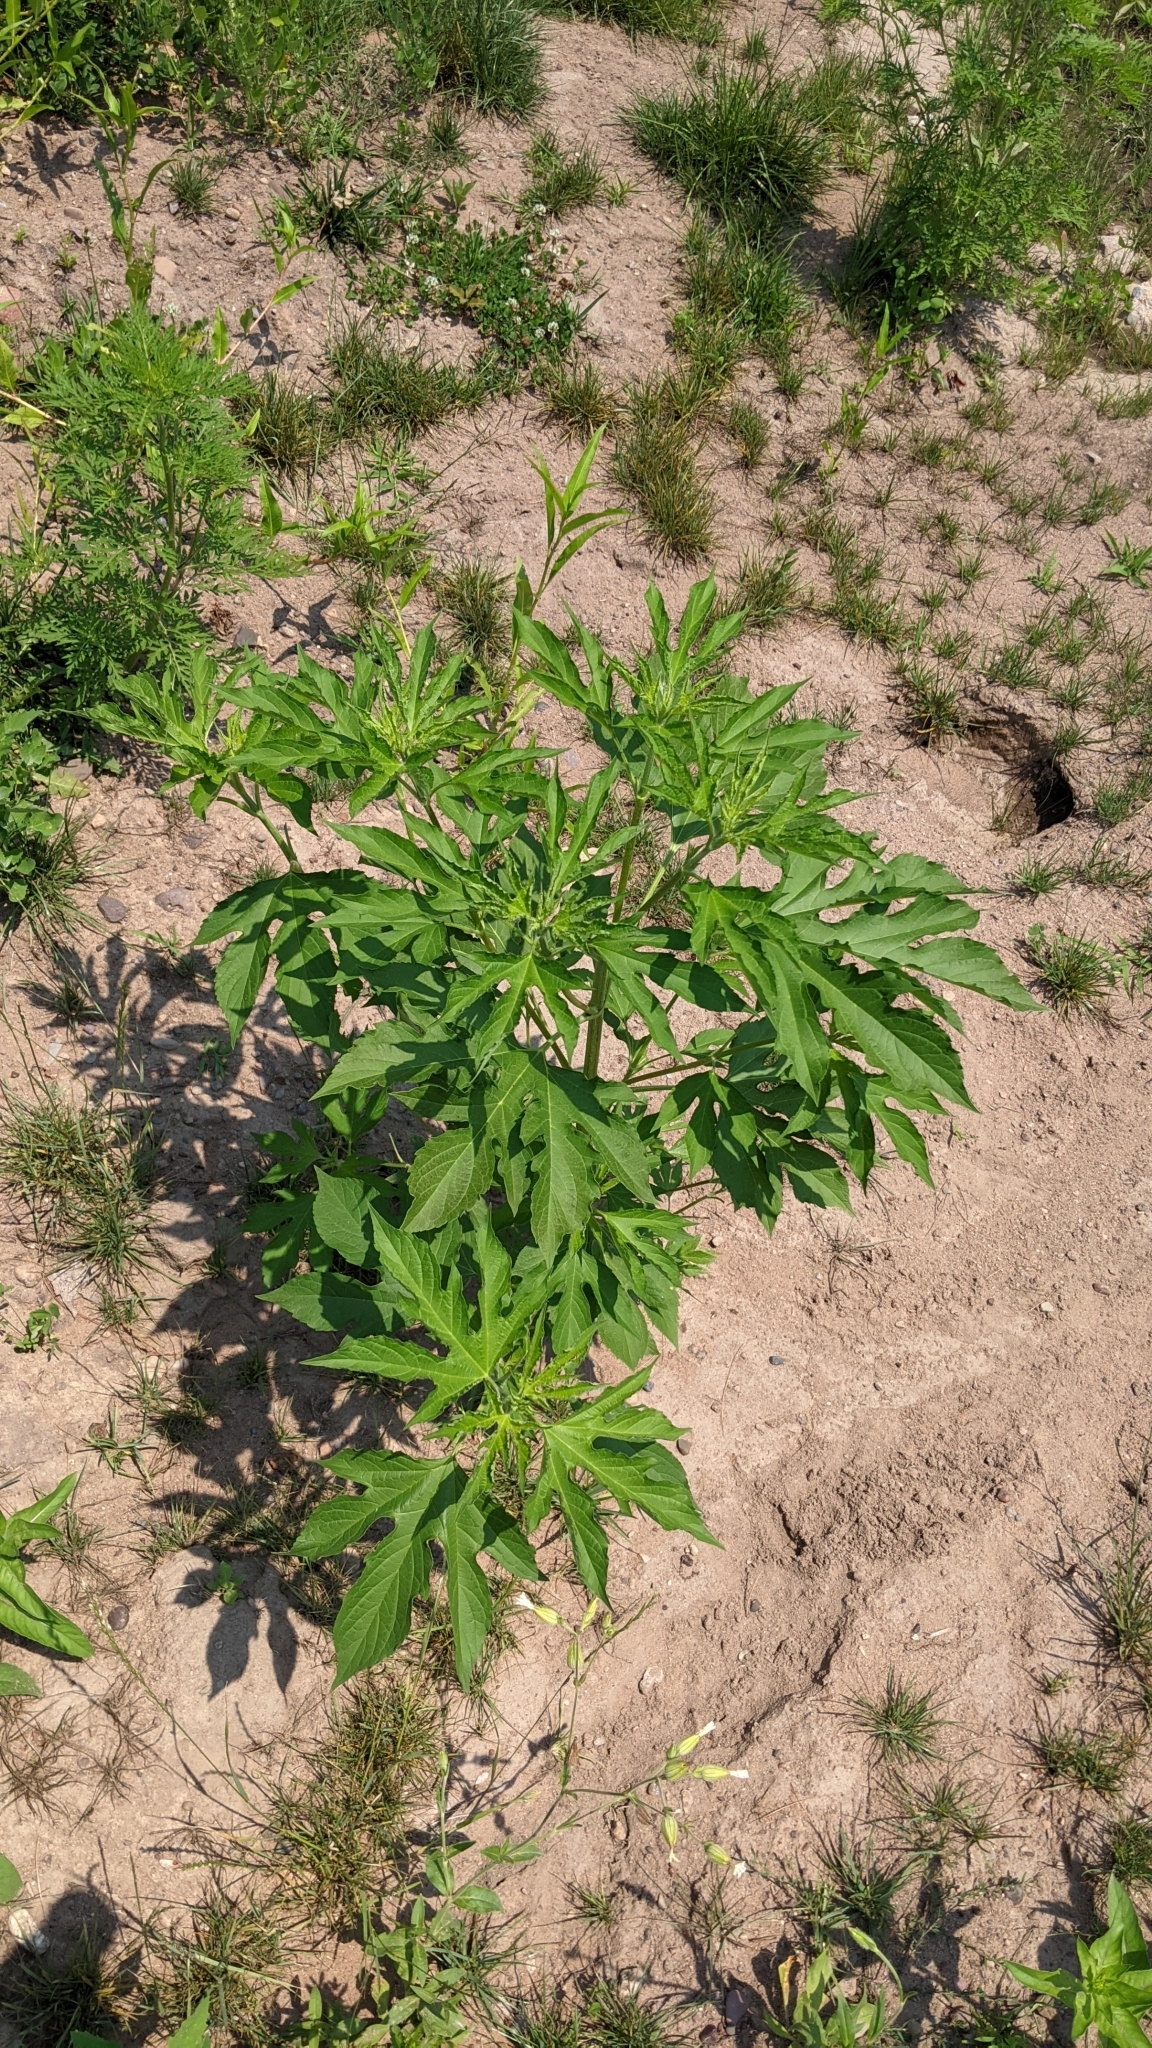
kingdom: Plantae
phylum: Tracheophyta
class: Magnoliopsida
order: Asterales
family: Asteraceae
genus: Ambrosia
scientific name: Ambrosia trifida
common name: Giant ragweed
